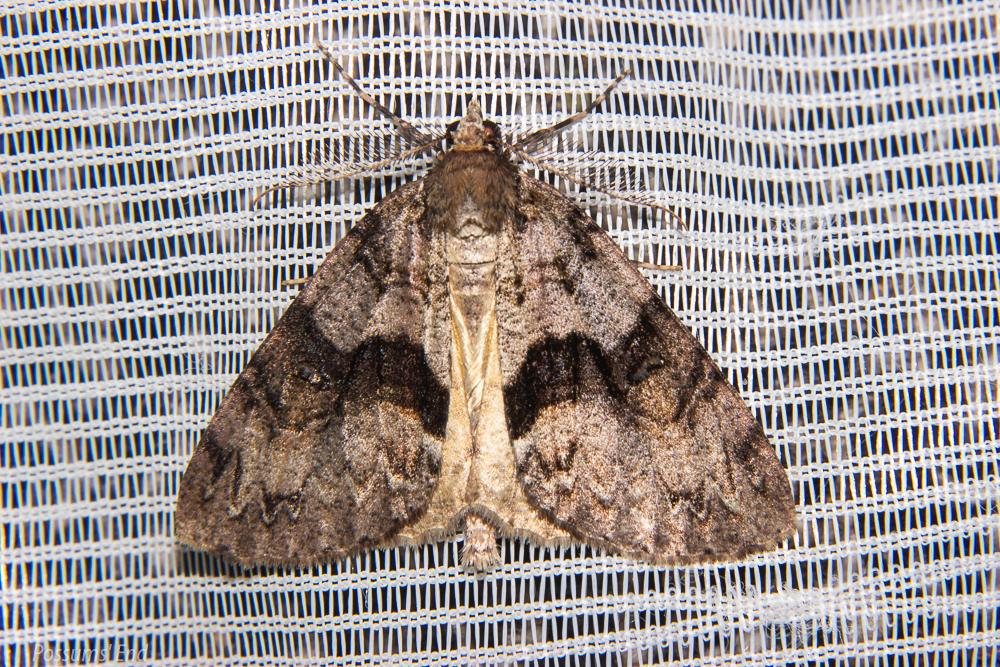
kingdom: Animalia
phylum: Arthropoda
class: Insecta
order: Lepidoptera
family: Geometridae
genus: Pseudocoremia
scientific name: Pseudocoremia suavis
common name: Common forest looper
